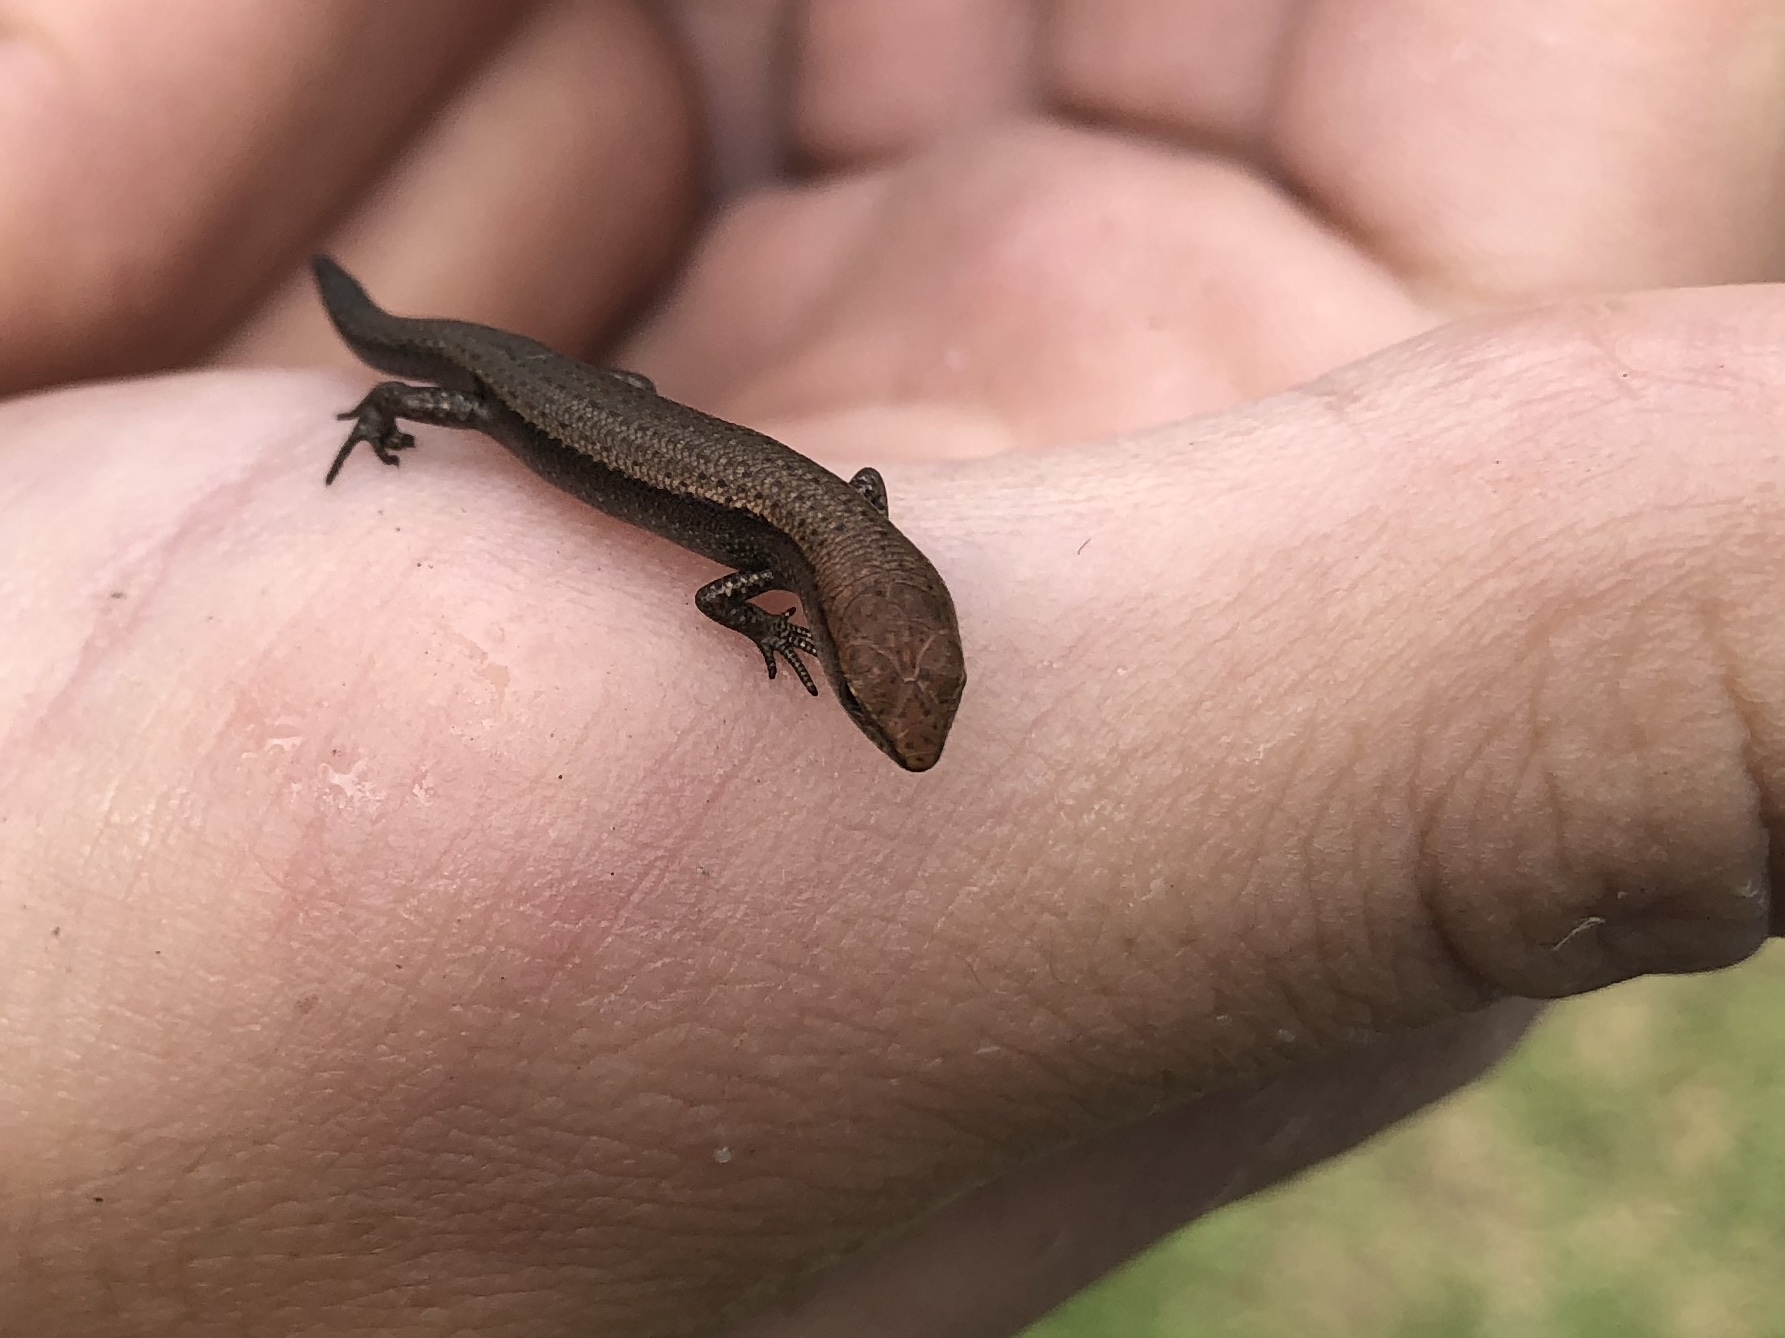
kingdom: Animalia
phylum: Chordata
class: Squamata
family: Scincidae
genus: Lampropholis
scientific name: Lampropholis delicata
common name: Plague skink
